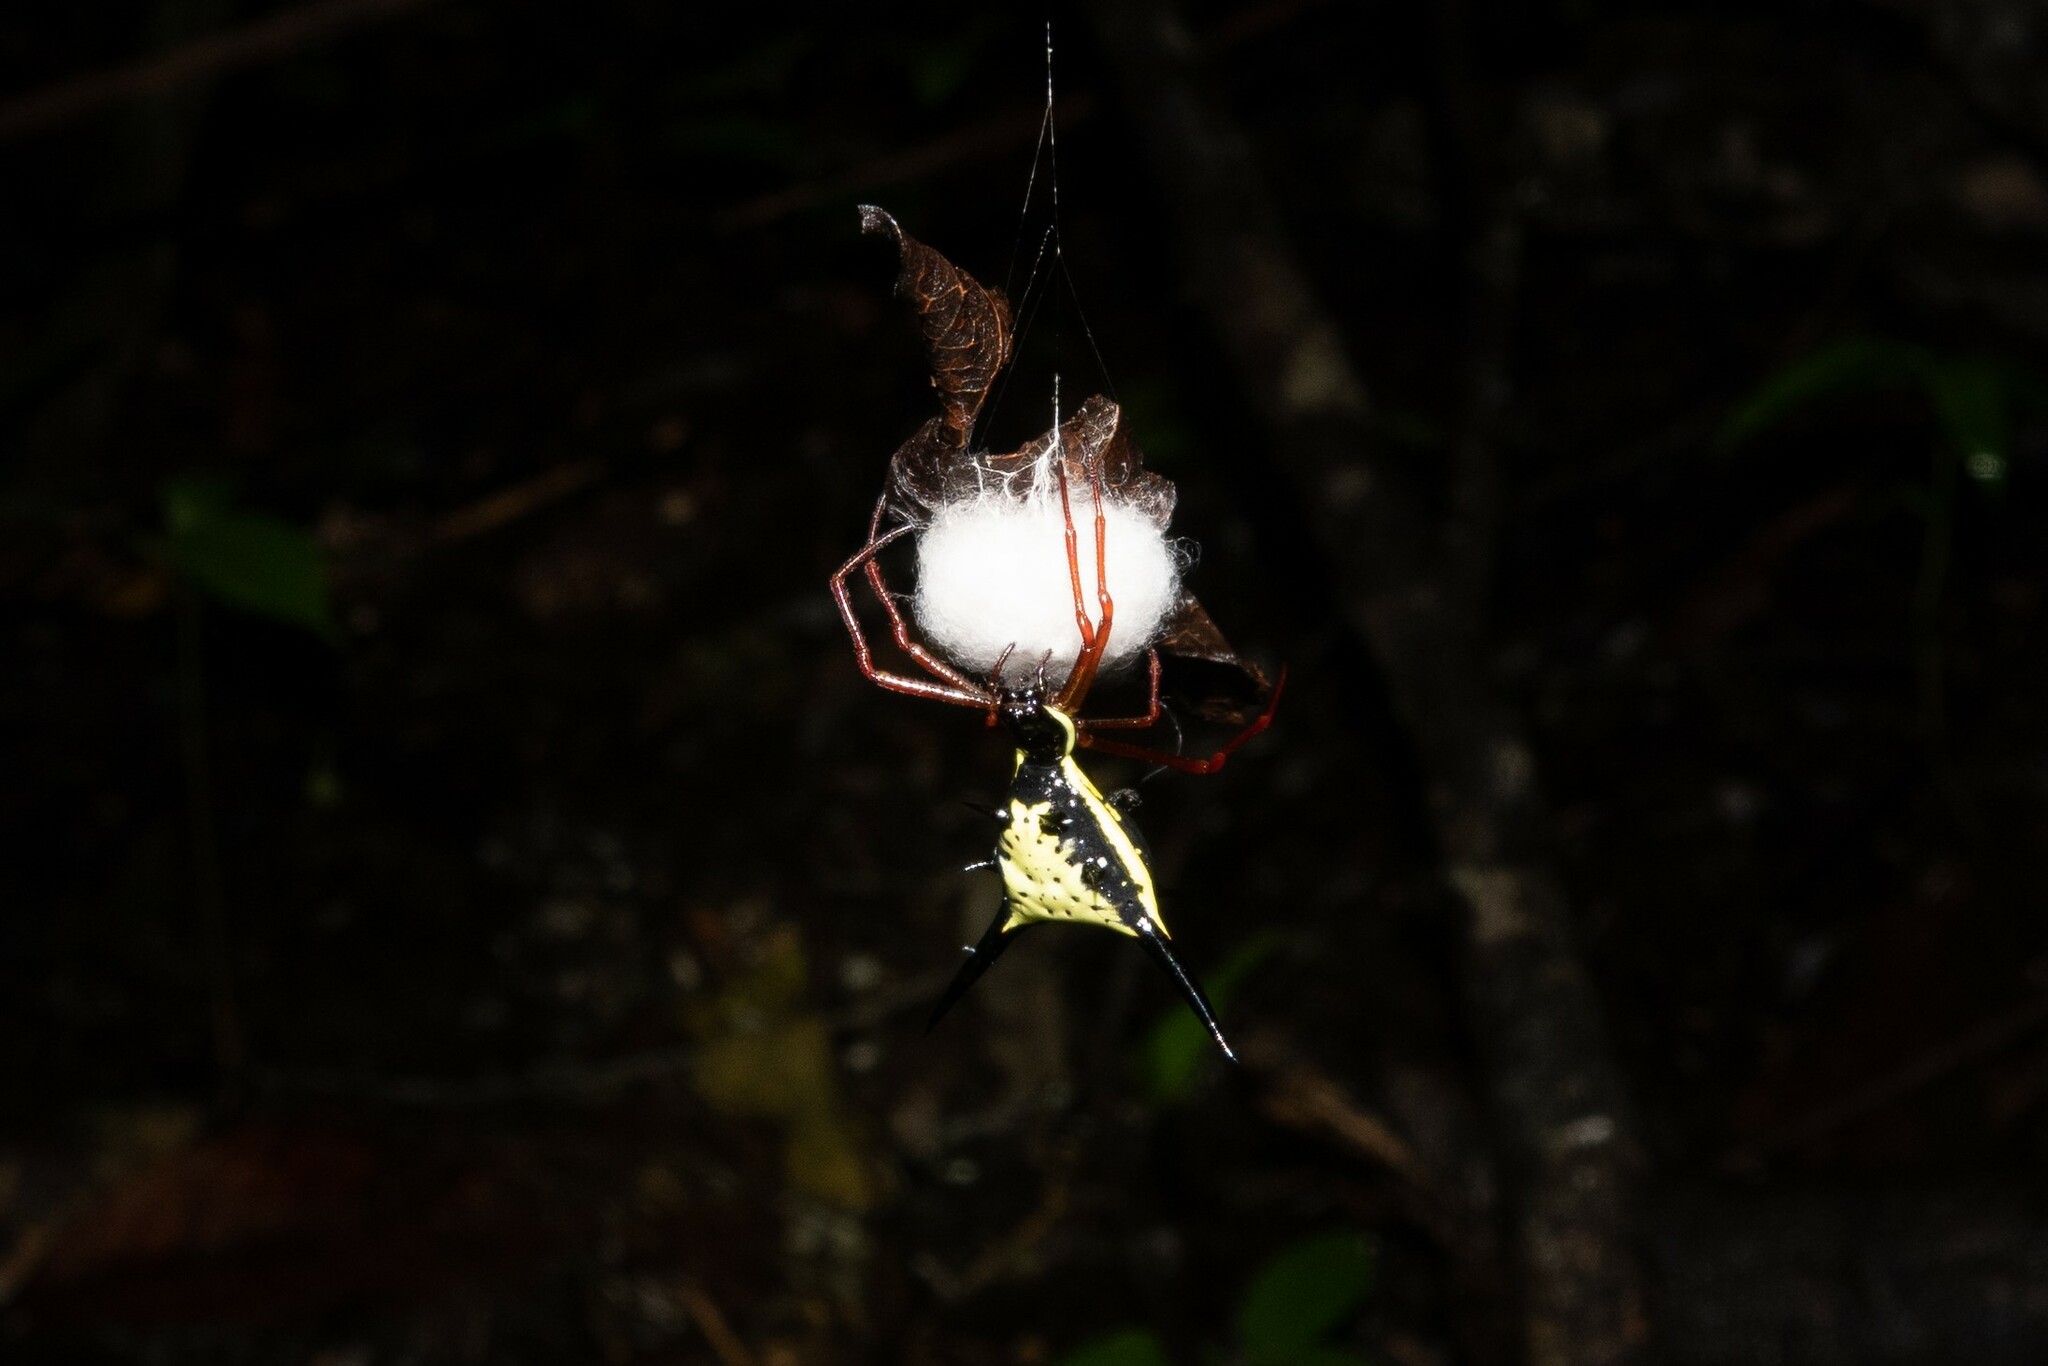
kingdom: Animalia
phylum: Arthropoda
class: Arachnida
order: Araneae
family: Araneidae
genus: Micrathena
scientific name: Micrathena schreibersi
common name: Orb weavers
